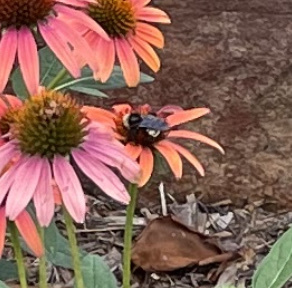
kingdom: Animalia
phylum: Arthropoda
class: Insecta
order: Hymenoptera
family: Apidae
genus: Bombus
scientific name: Bombus pensylvanicus
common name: Bumble bee
